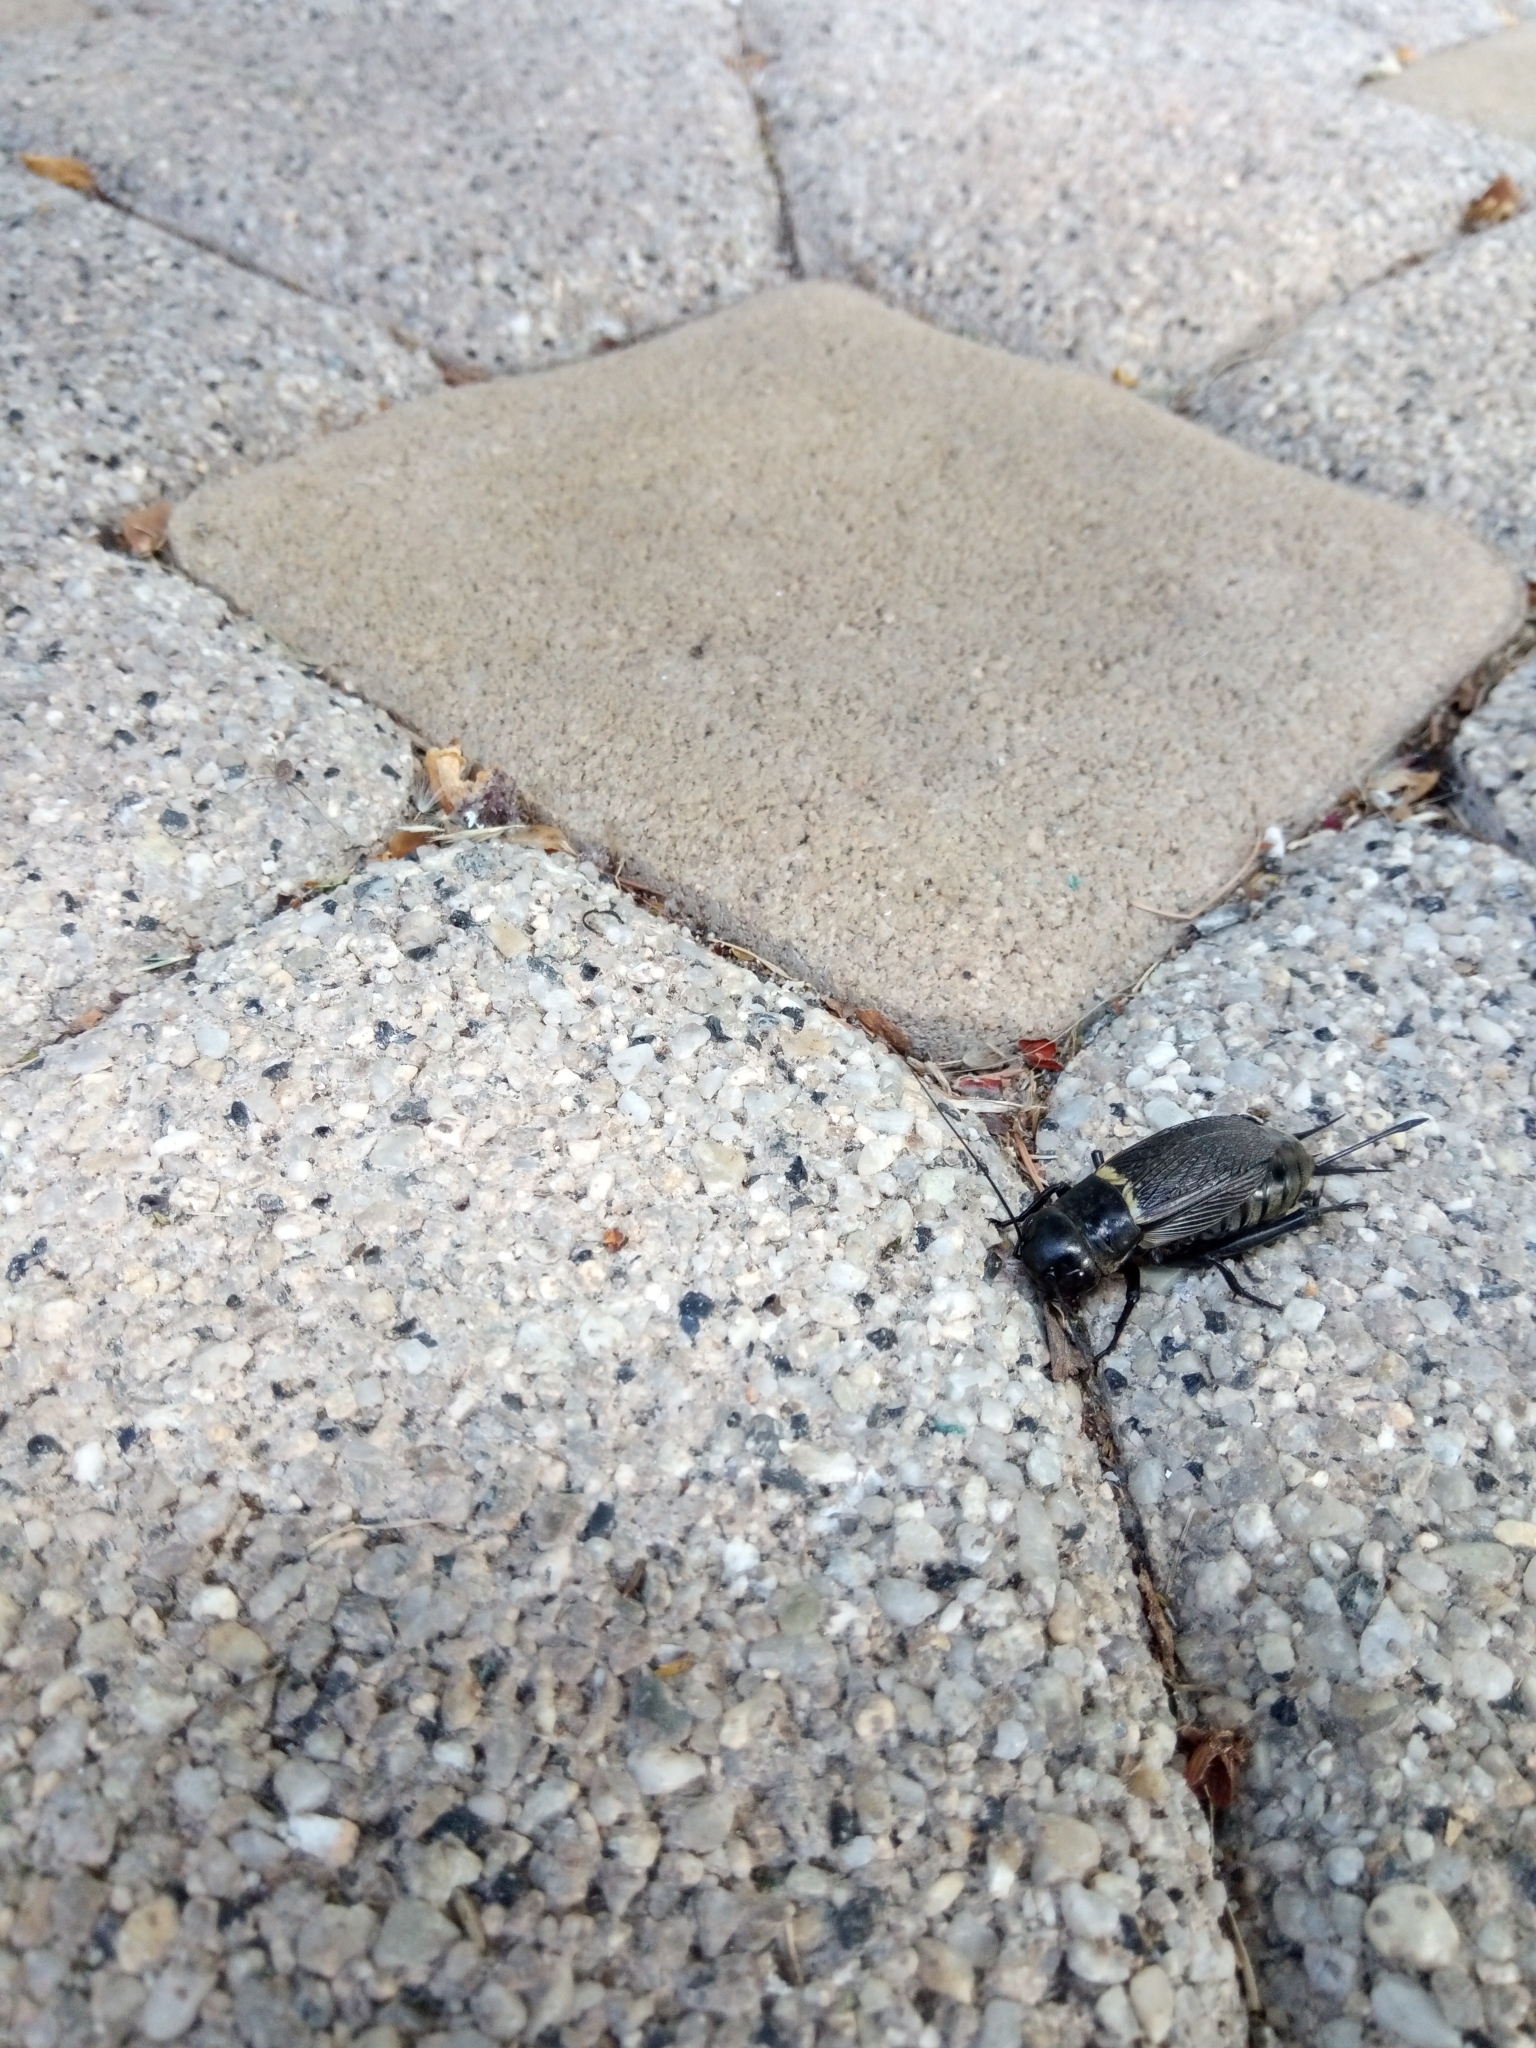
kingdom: Animalia
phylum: Arthropoda
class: Insecta
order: Orthoptera
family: Gryllidae
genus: Gryllus
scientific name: Gryllus campestris
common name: Field cricket
